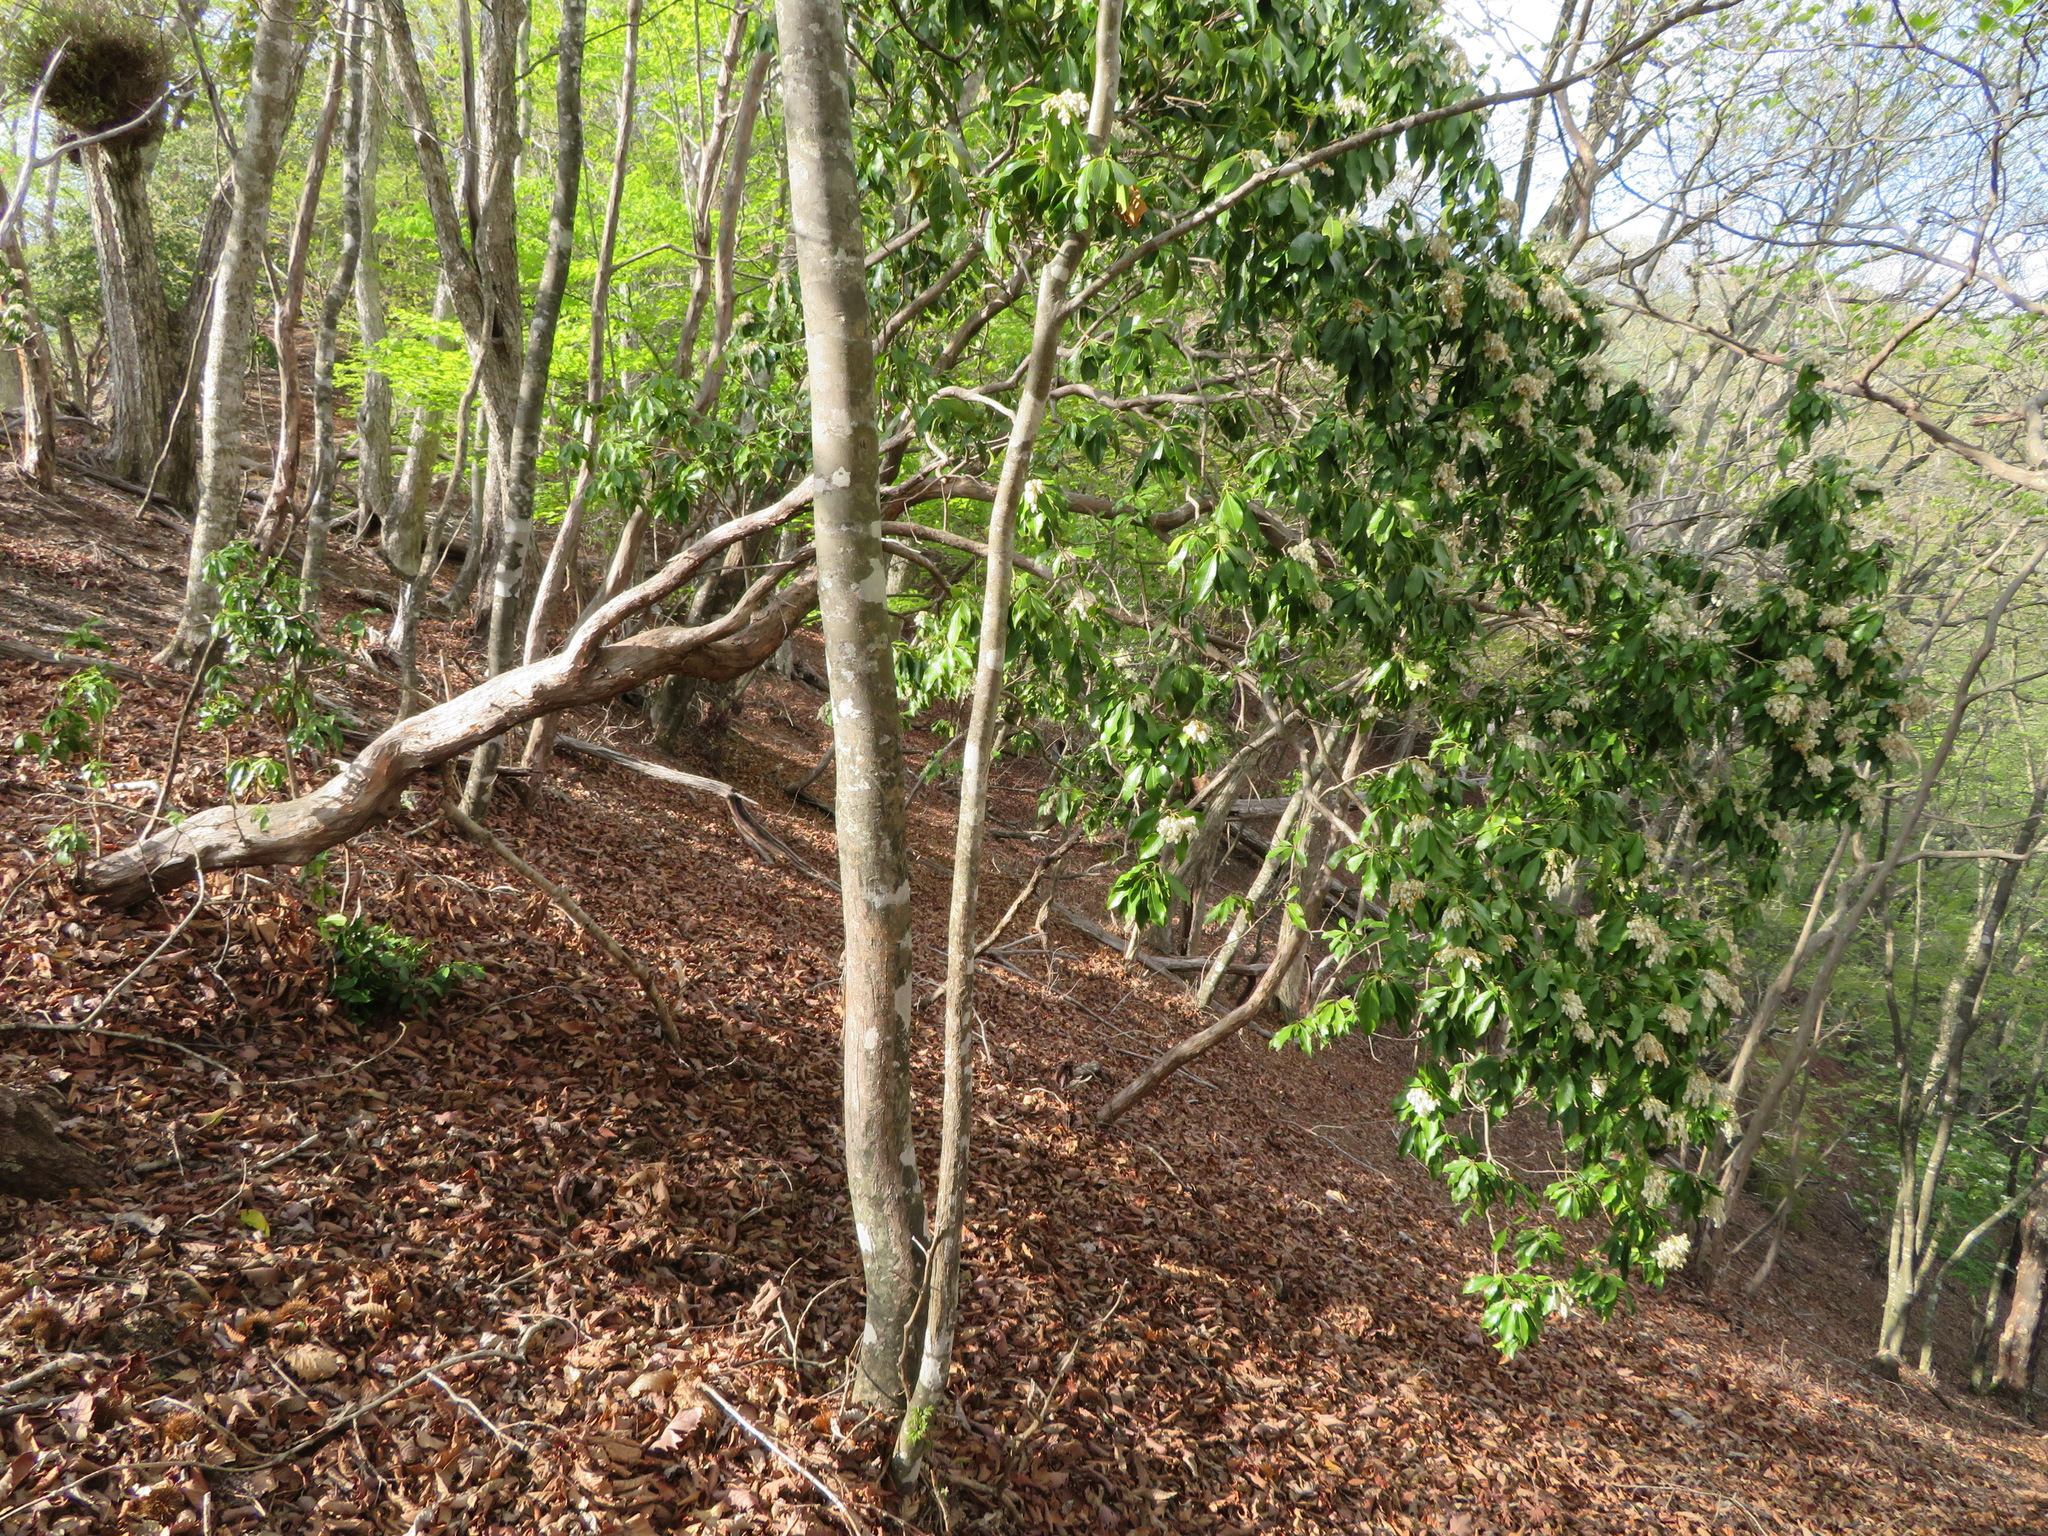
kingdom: Plantae
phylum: Tracheophyta
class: Magnoliopsida
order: Ericales
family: Ericaceae
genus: Pieris
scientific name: Pieris japonica
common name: Japanese pieris
